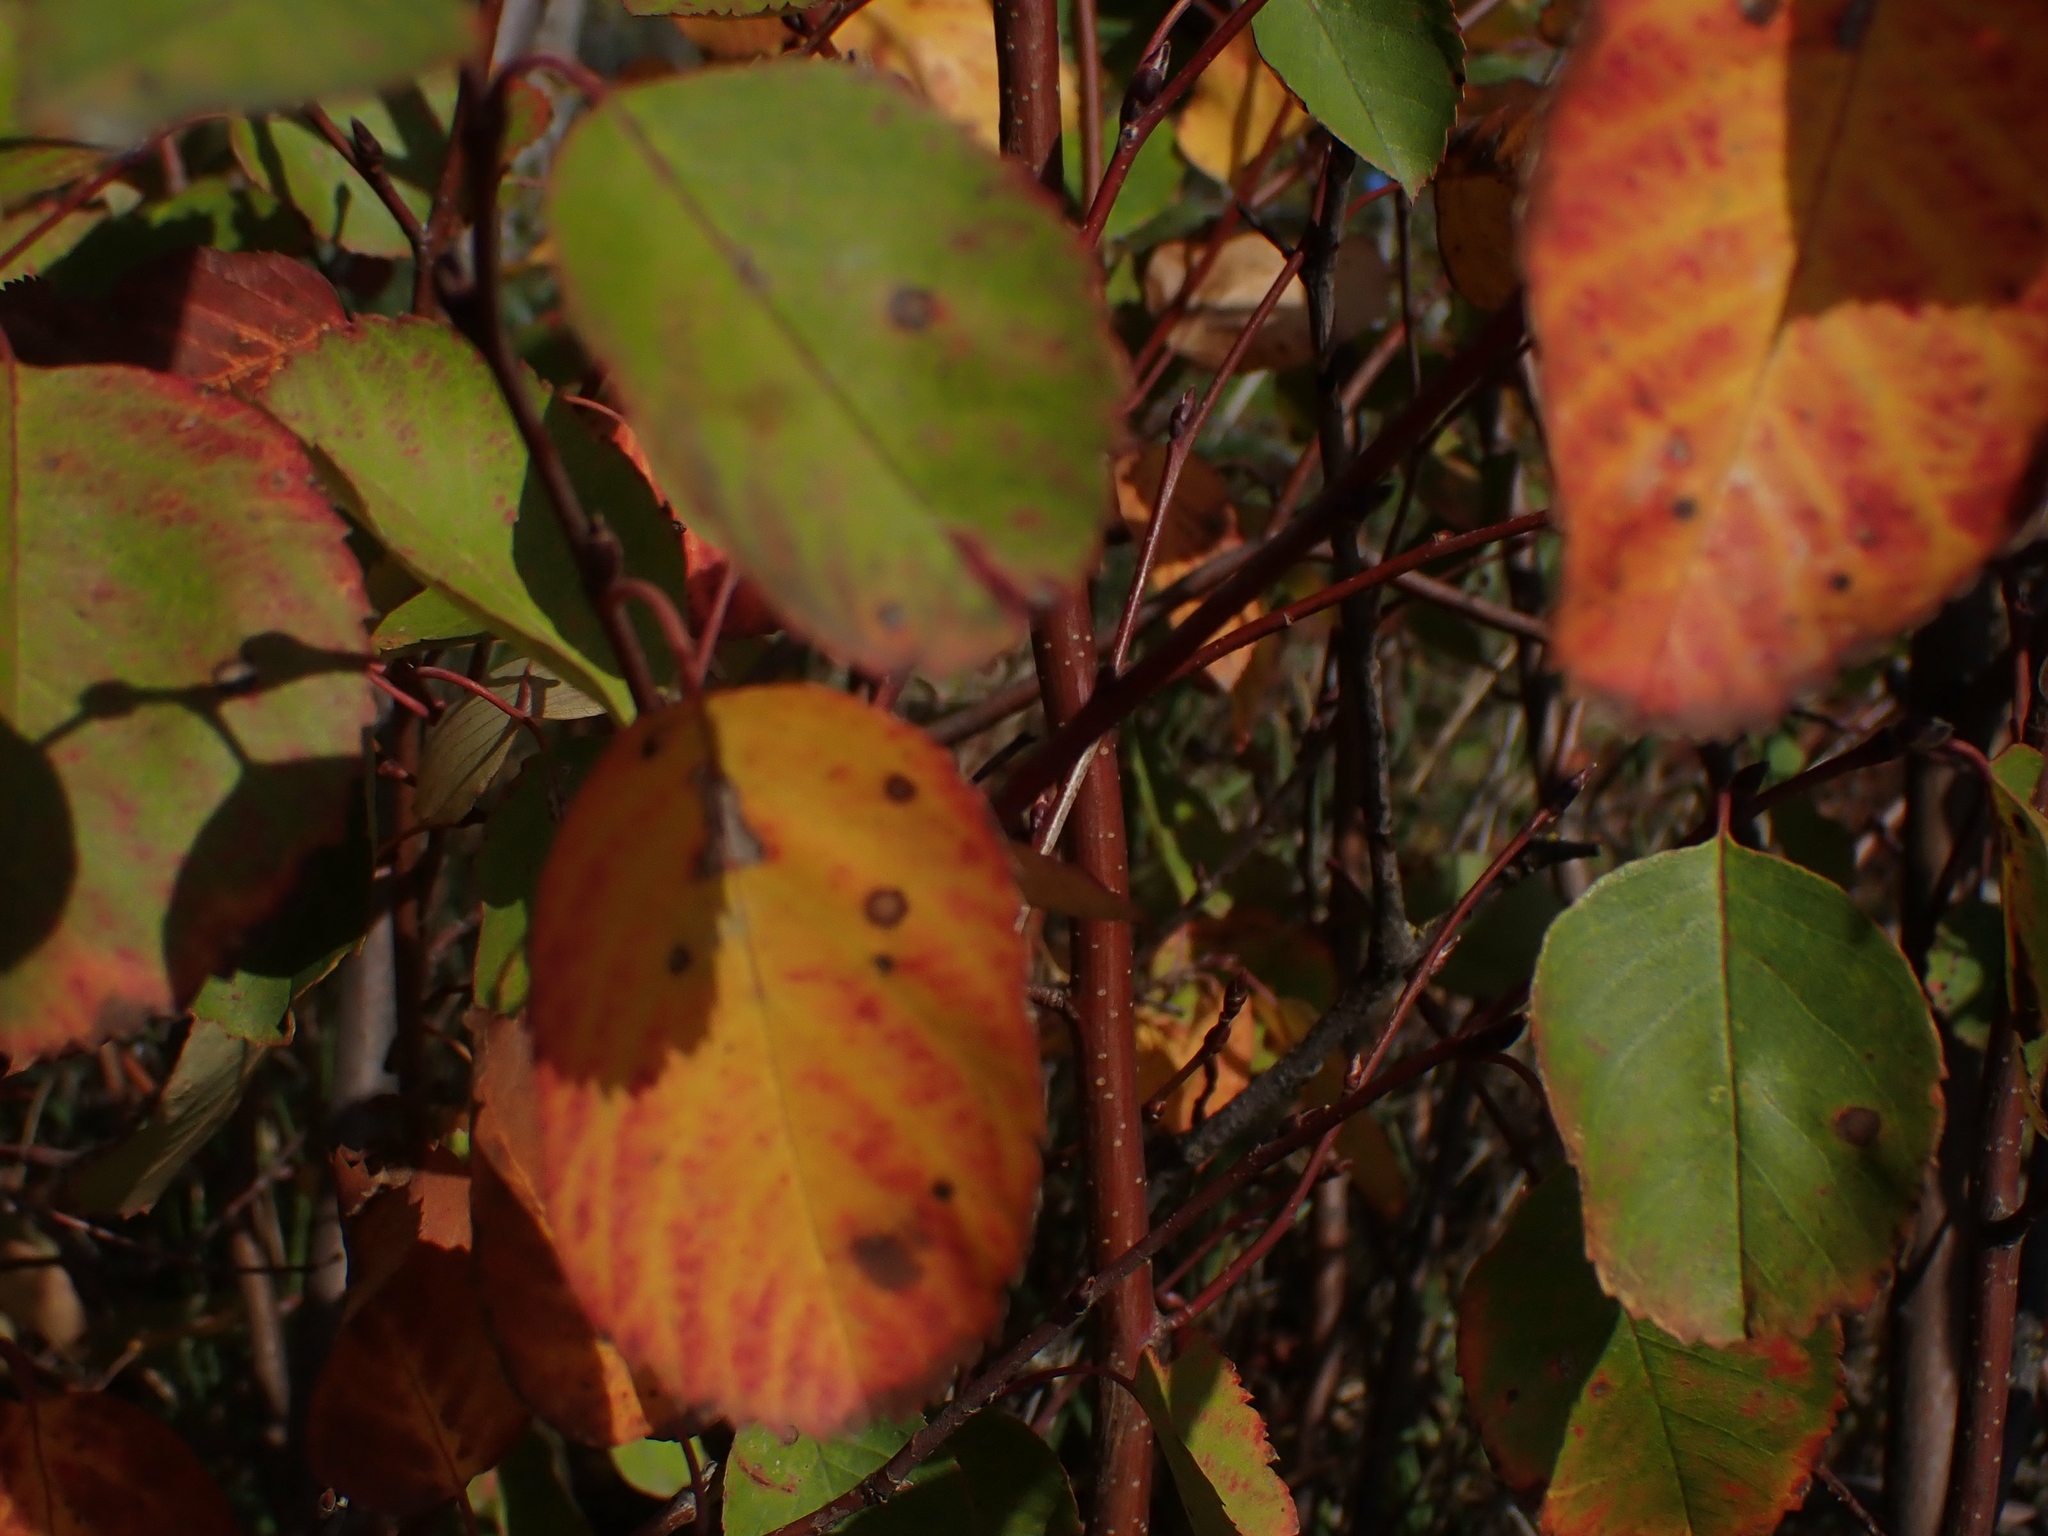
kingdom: Plantae
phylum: Tracheophyta
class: Magnoliopsida
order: Rosales
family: Rosaceae
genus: Amelanchier
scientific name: Amelanchier alnifolia
